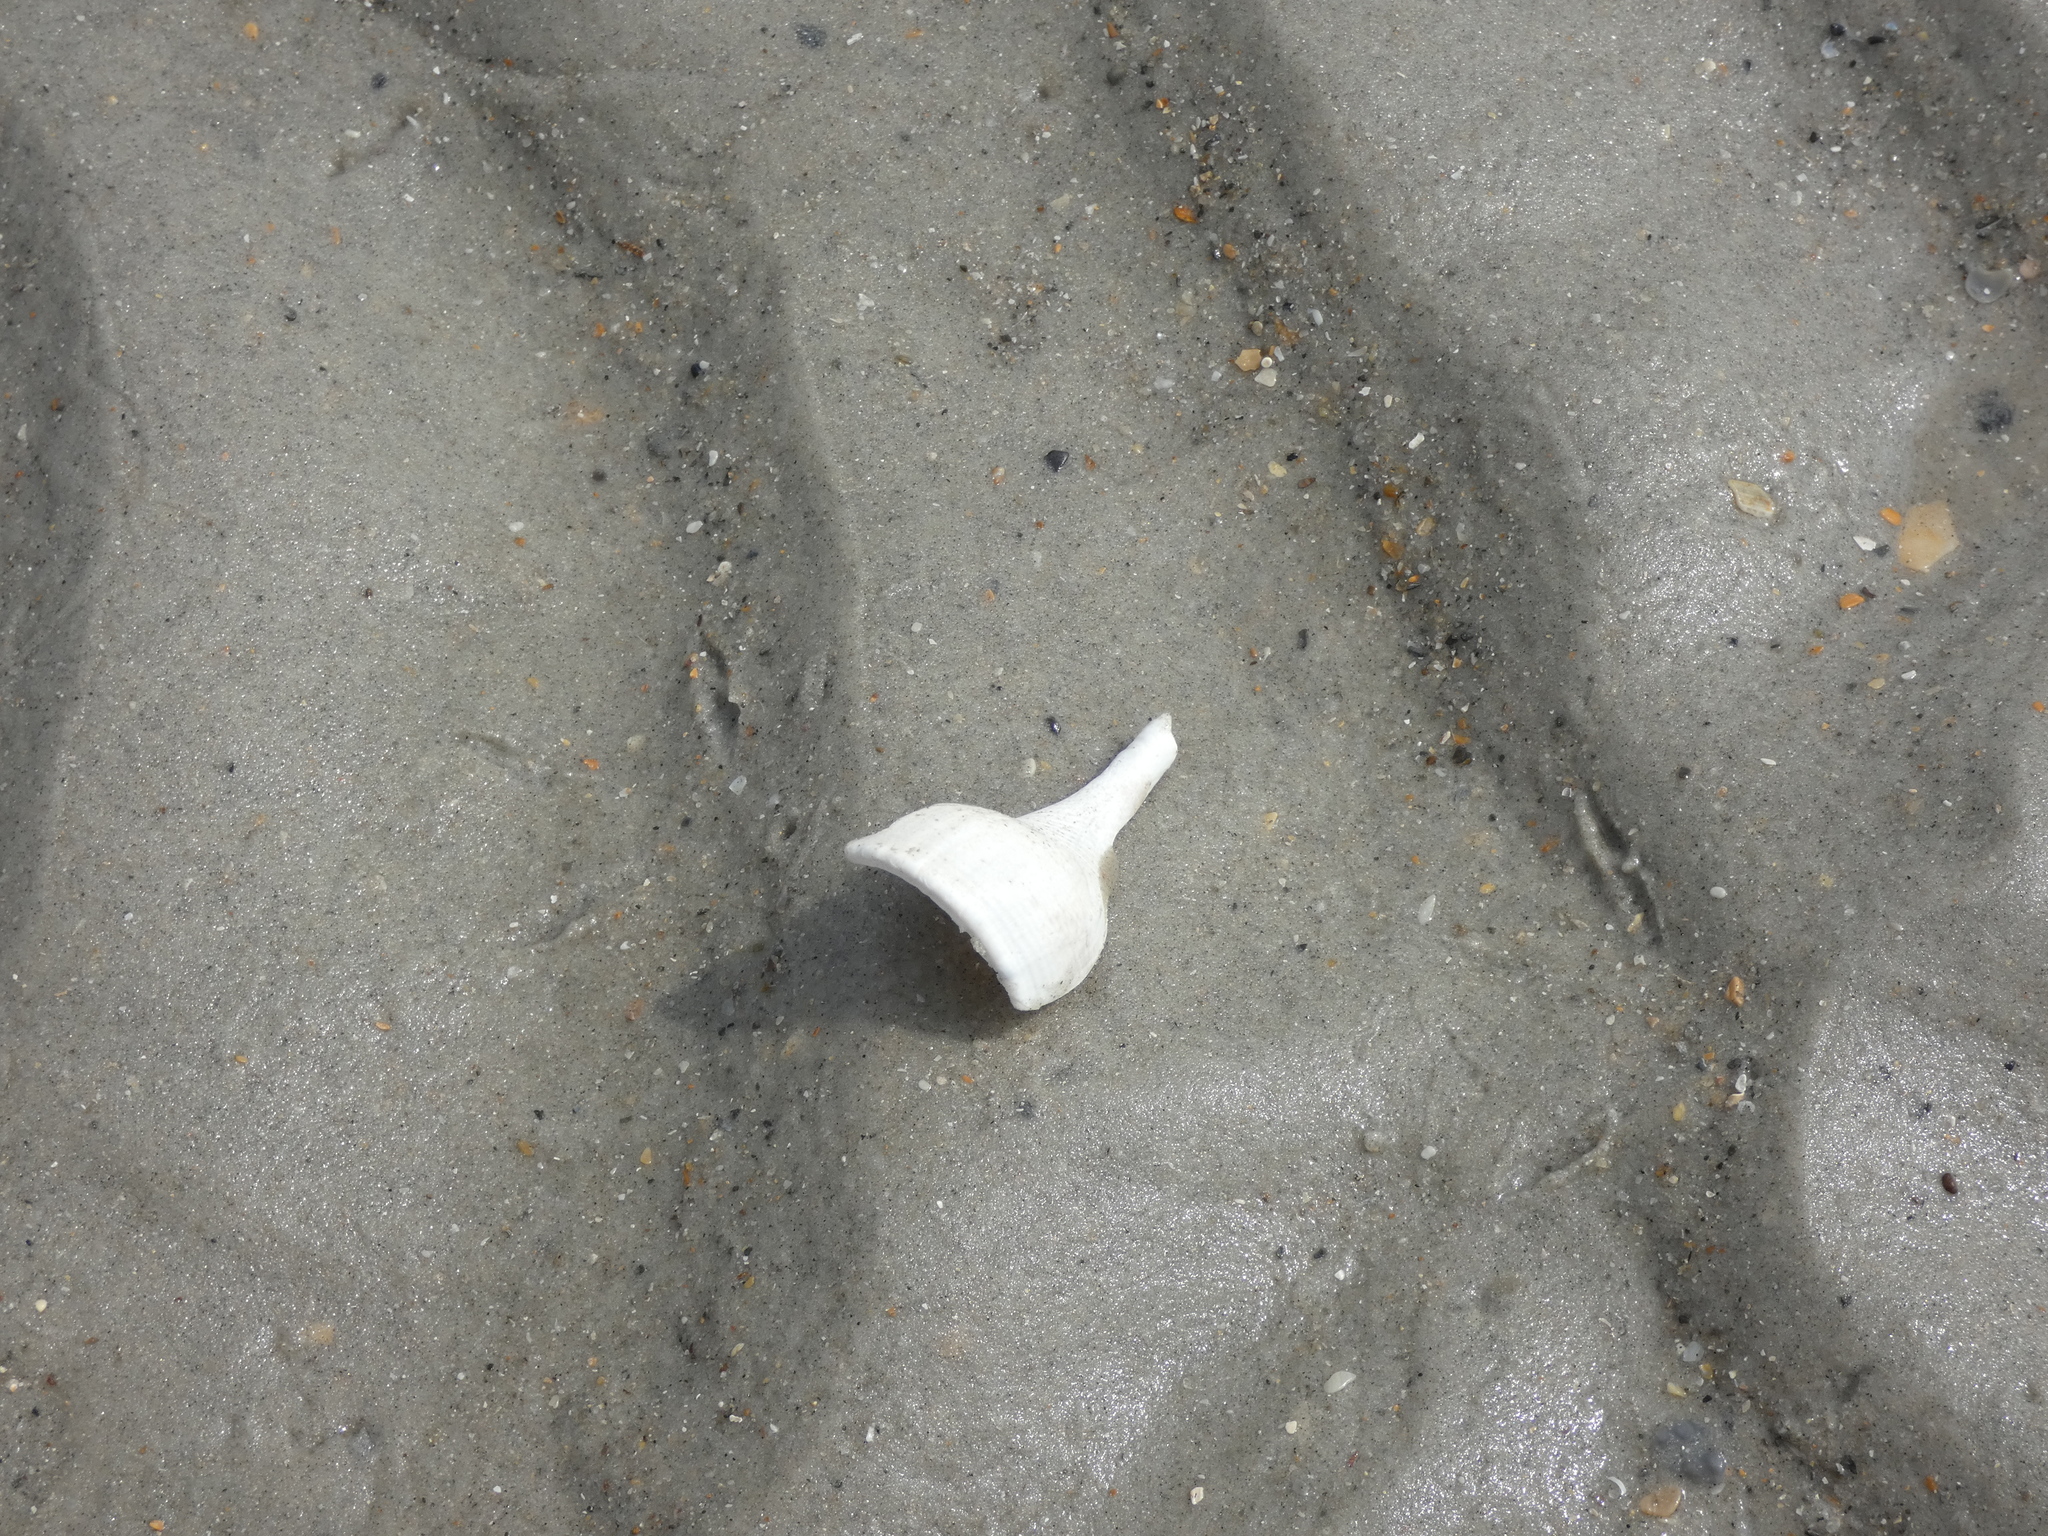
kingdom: Animalia
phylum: Mollusca
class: Gastropoda
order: Neogastropoda
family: Busyconidae
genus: Busycotypus
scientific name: Busycotypus canaliculatus
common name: Channeled whelk
